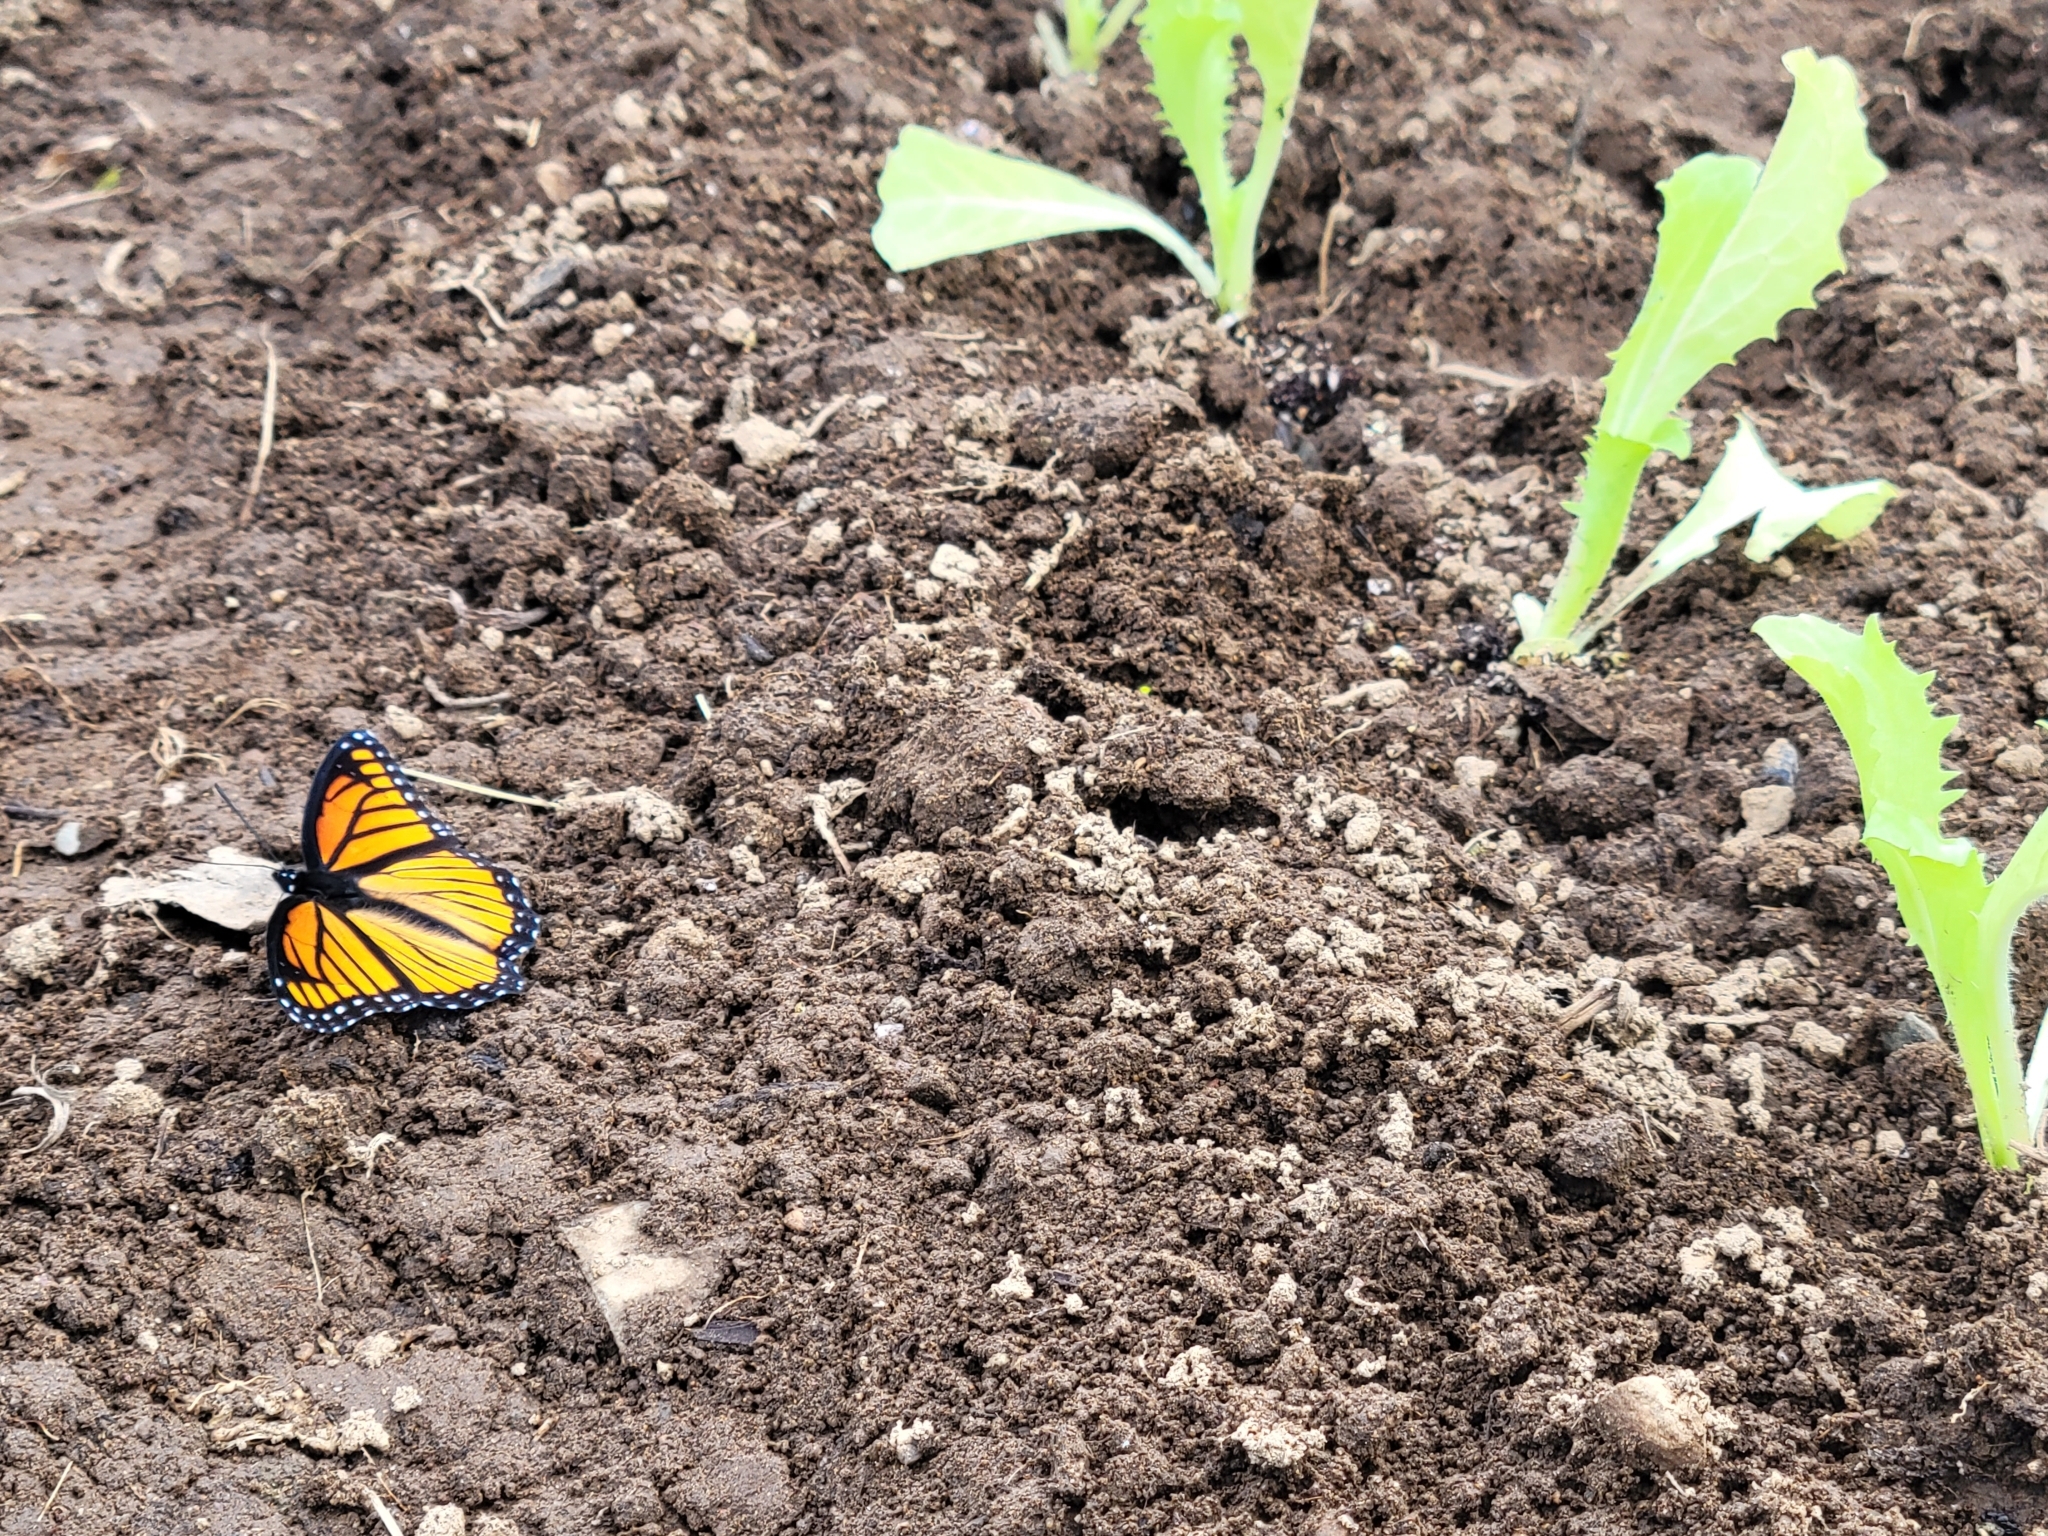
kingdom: Animalia
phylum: Arthropoda
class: Insecta
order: Lepidoptera
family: Nymphalidae
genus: Limenitis
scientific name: Limenitis archippus
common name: Viceroy
